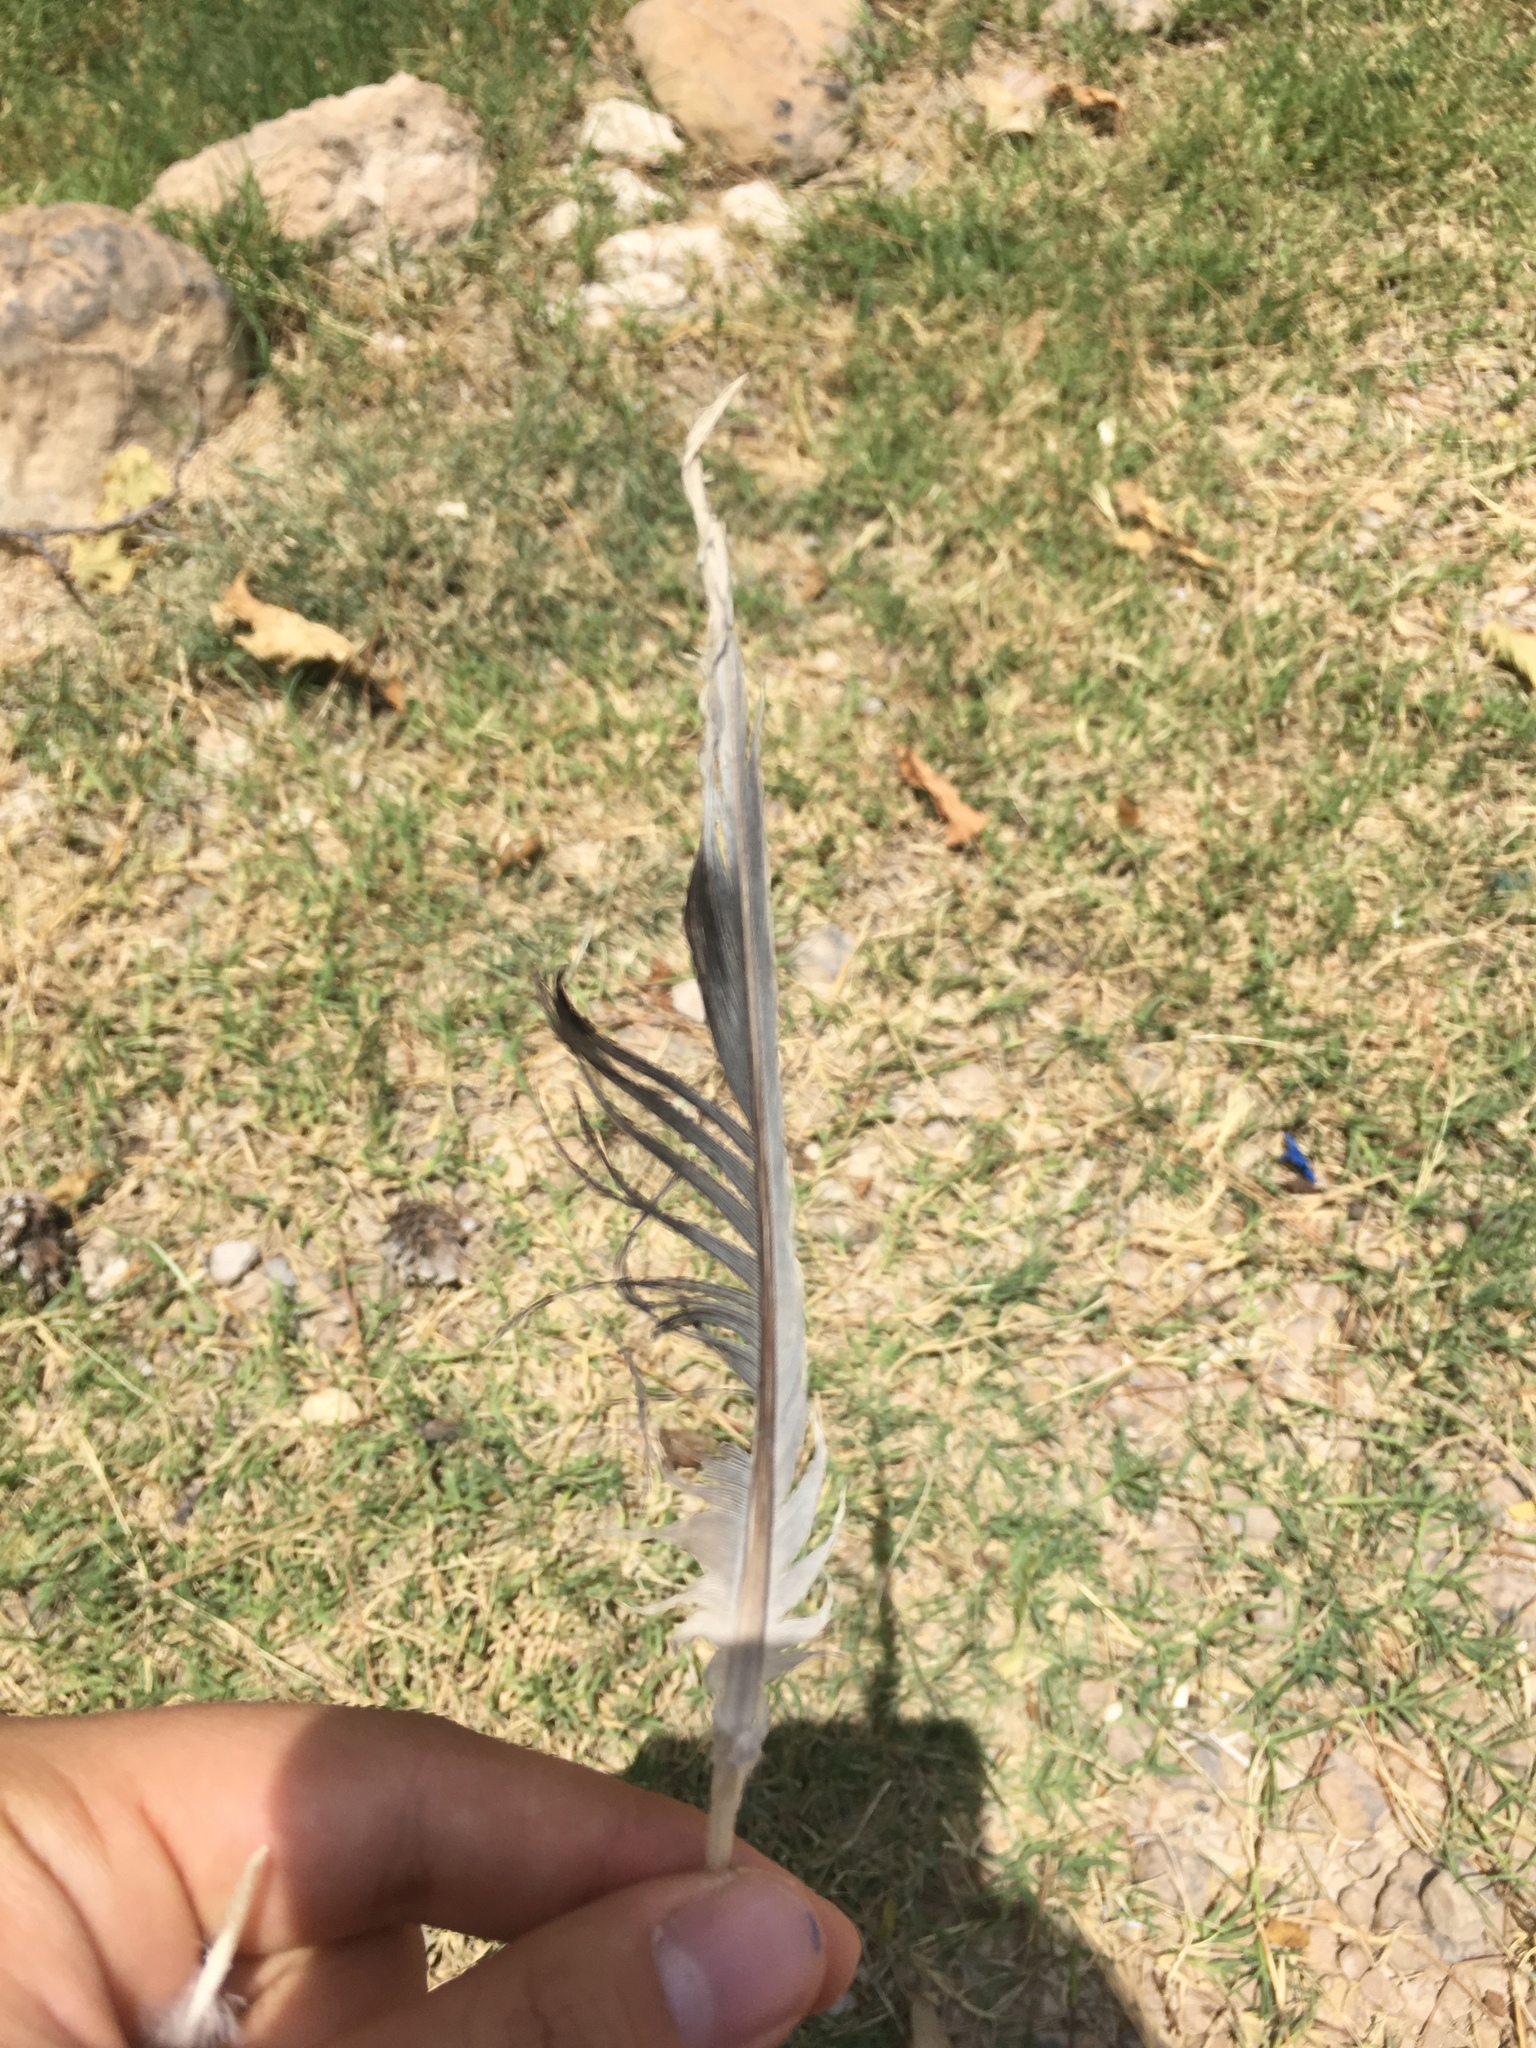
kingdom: Animalia
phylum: Chordata
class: Aves
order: Columbiformes
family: Columbidae
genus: Streptopelia
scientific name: Streptopelia decaocto
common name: Eurasian collared dove
